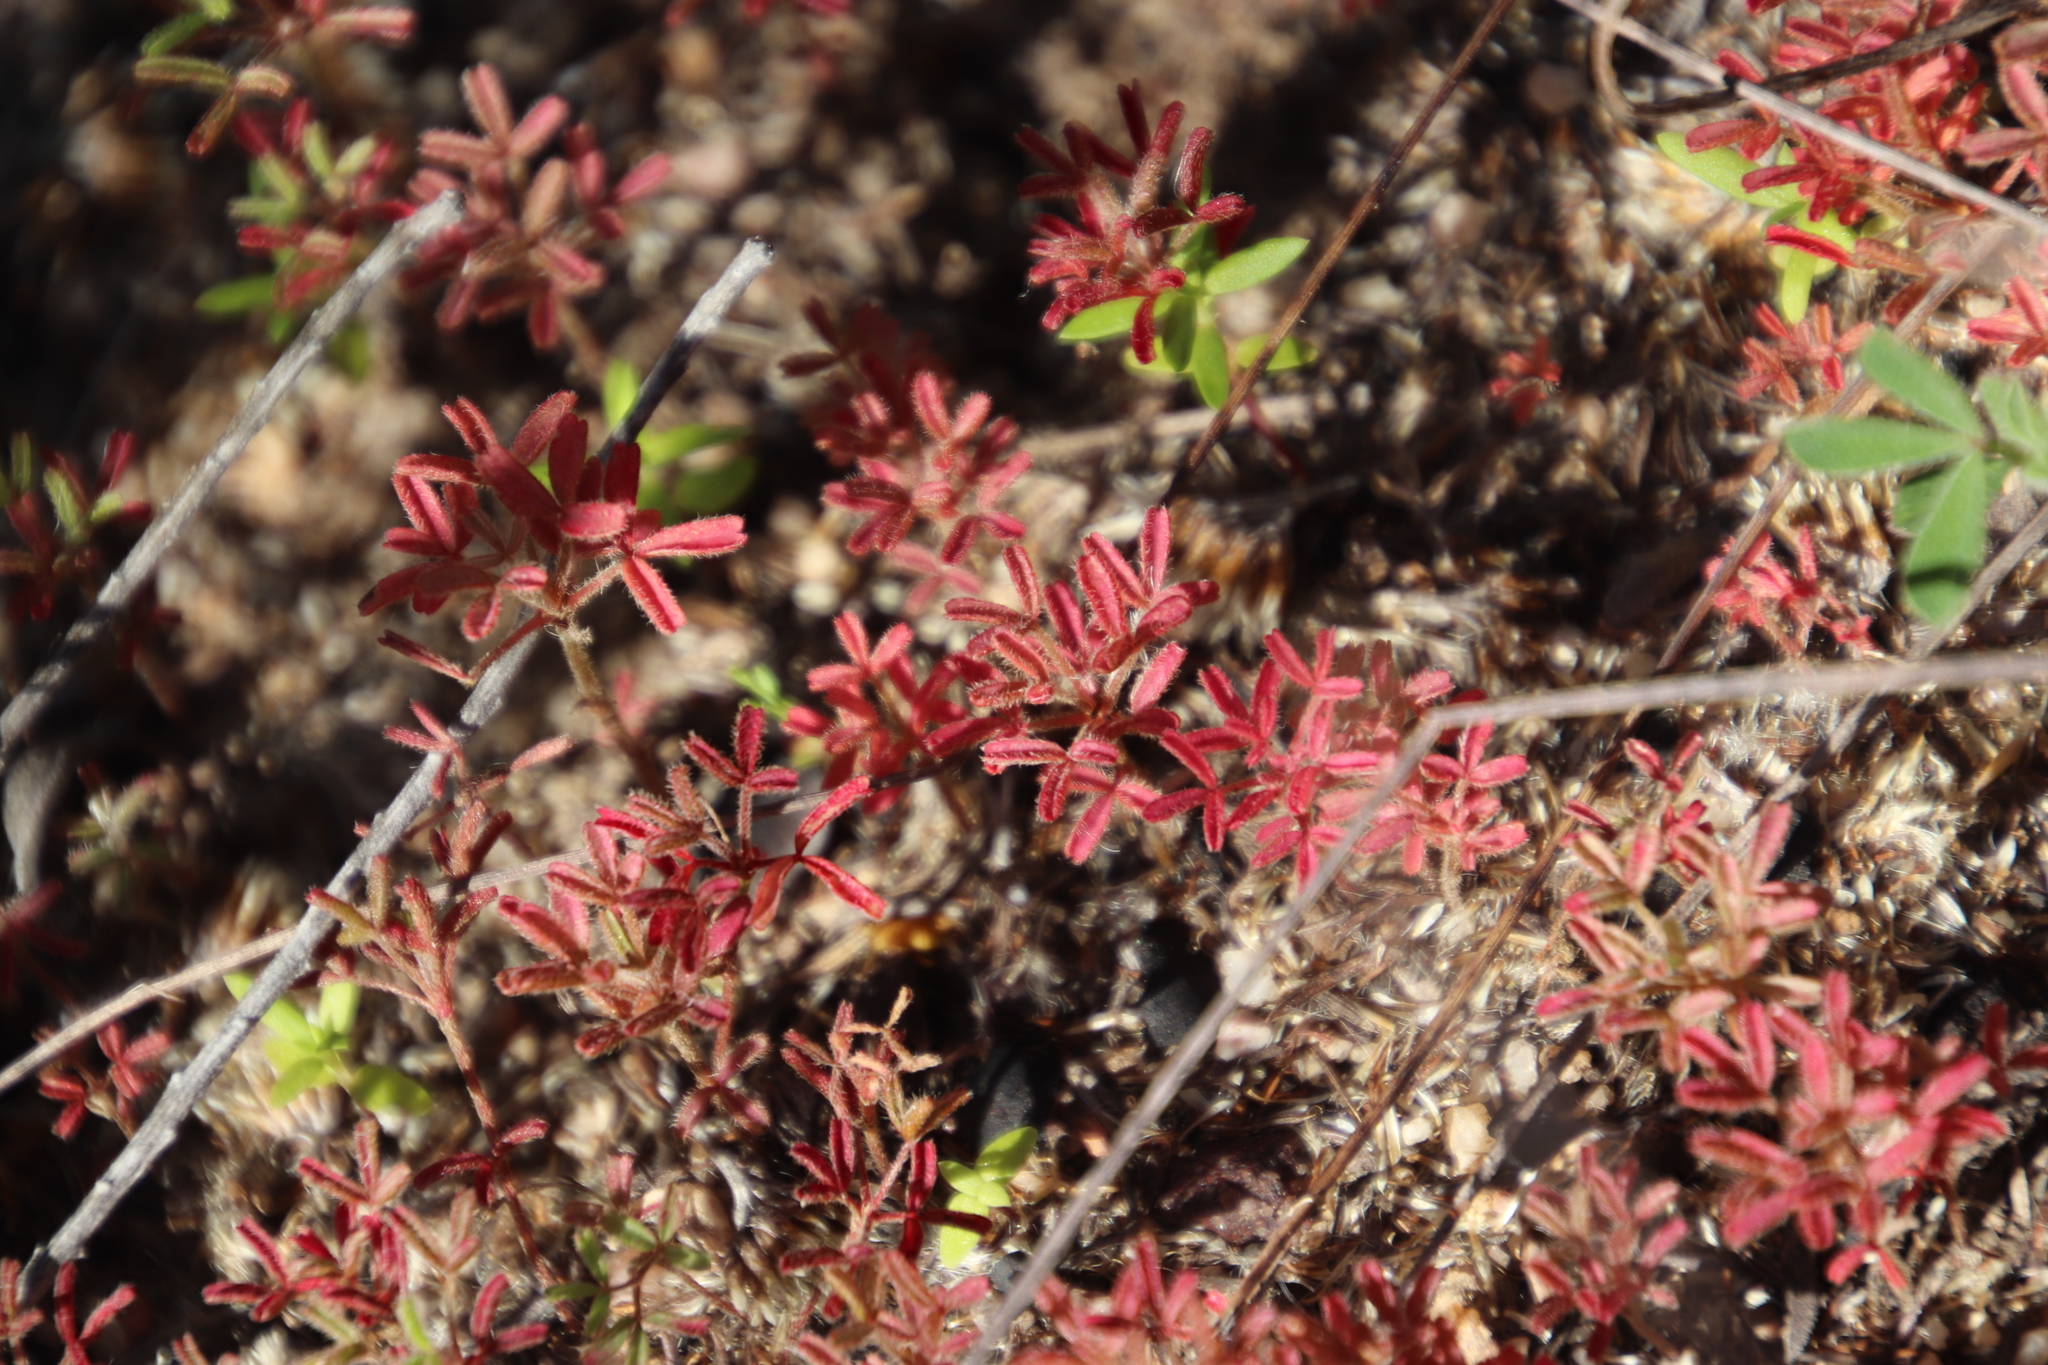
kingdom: Plantae
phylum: Tracheophyta
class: Magnoliopsida
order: Oxalidales
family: Oxalidaceae
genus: Oxalis
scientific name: Oxalis glabra
